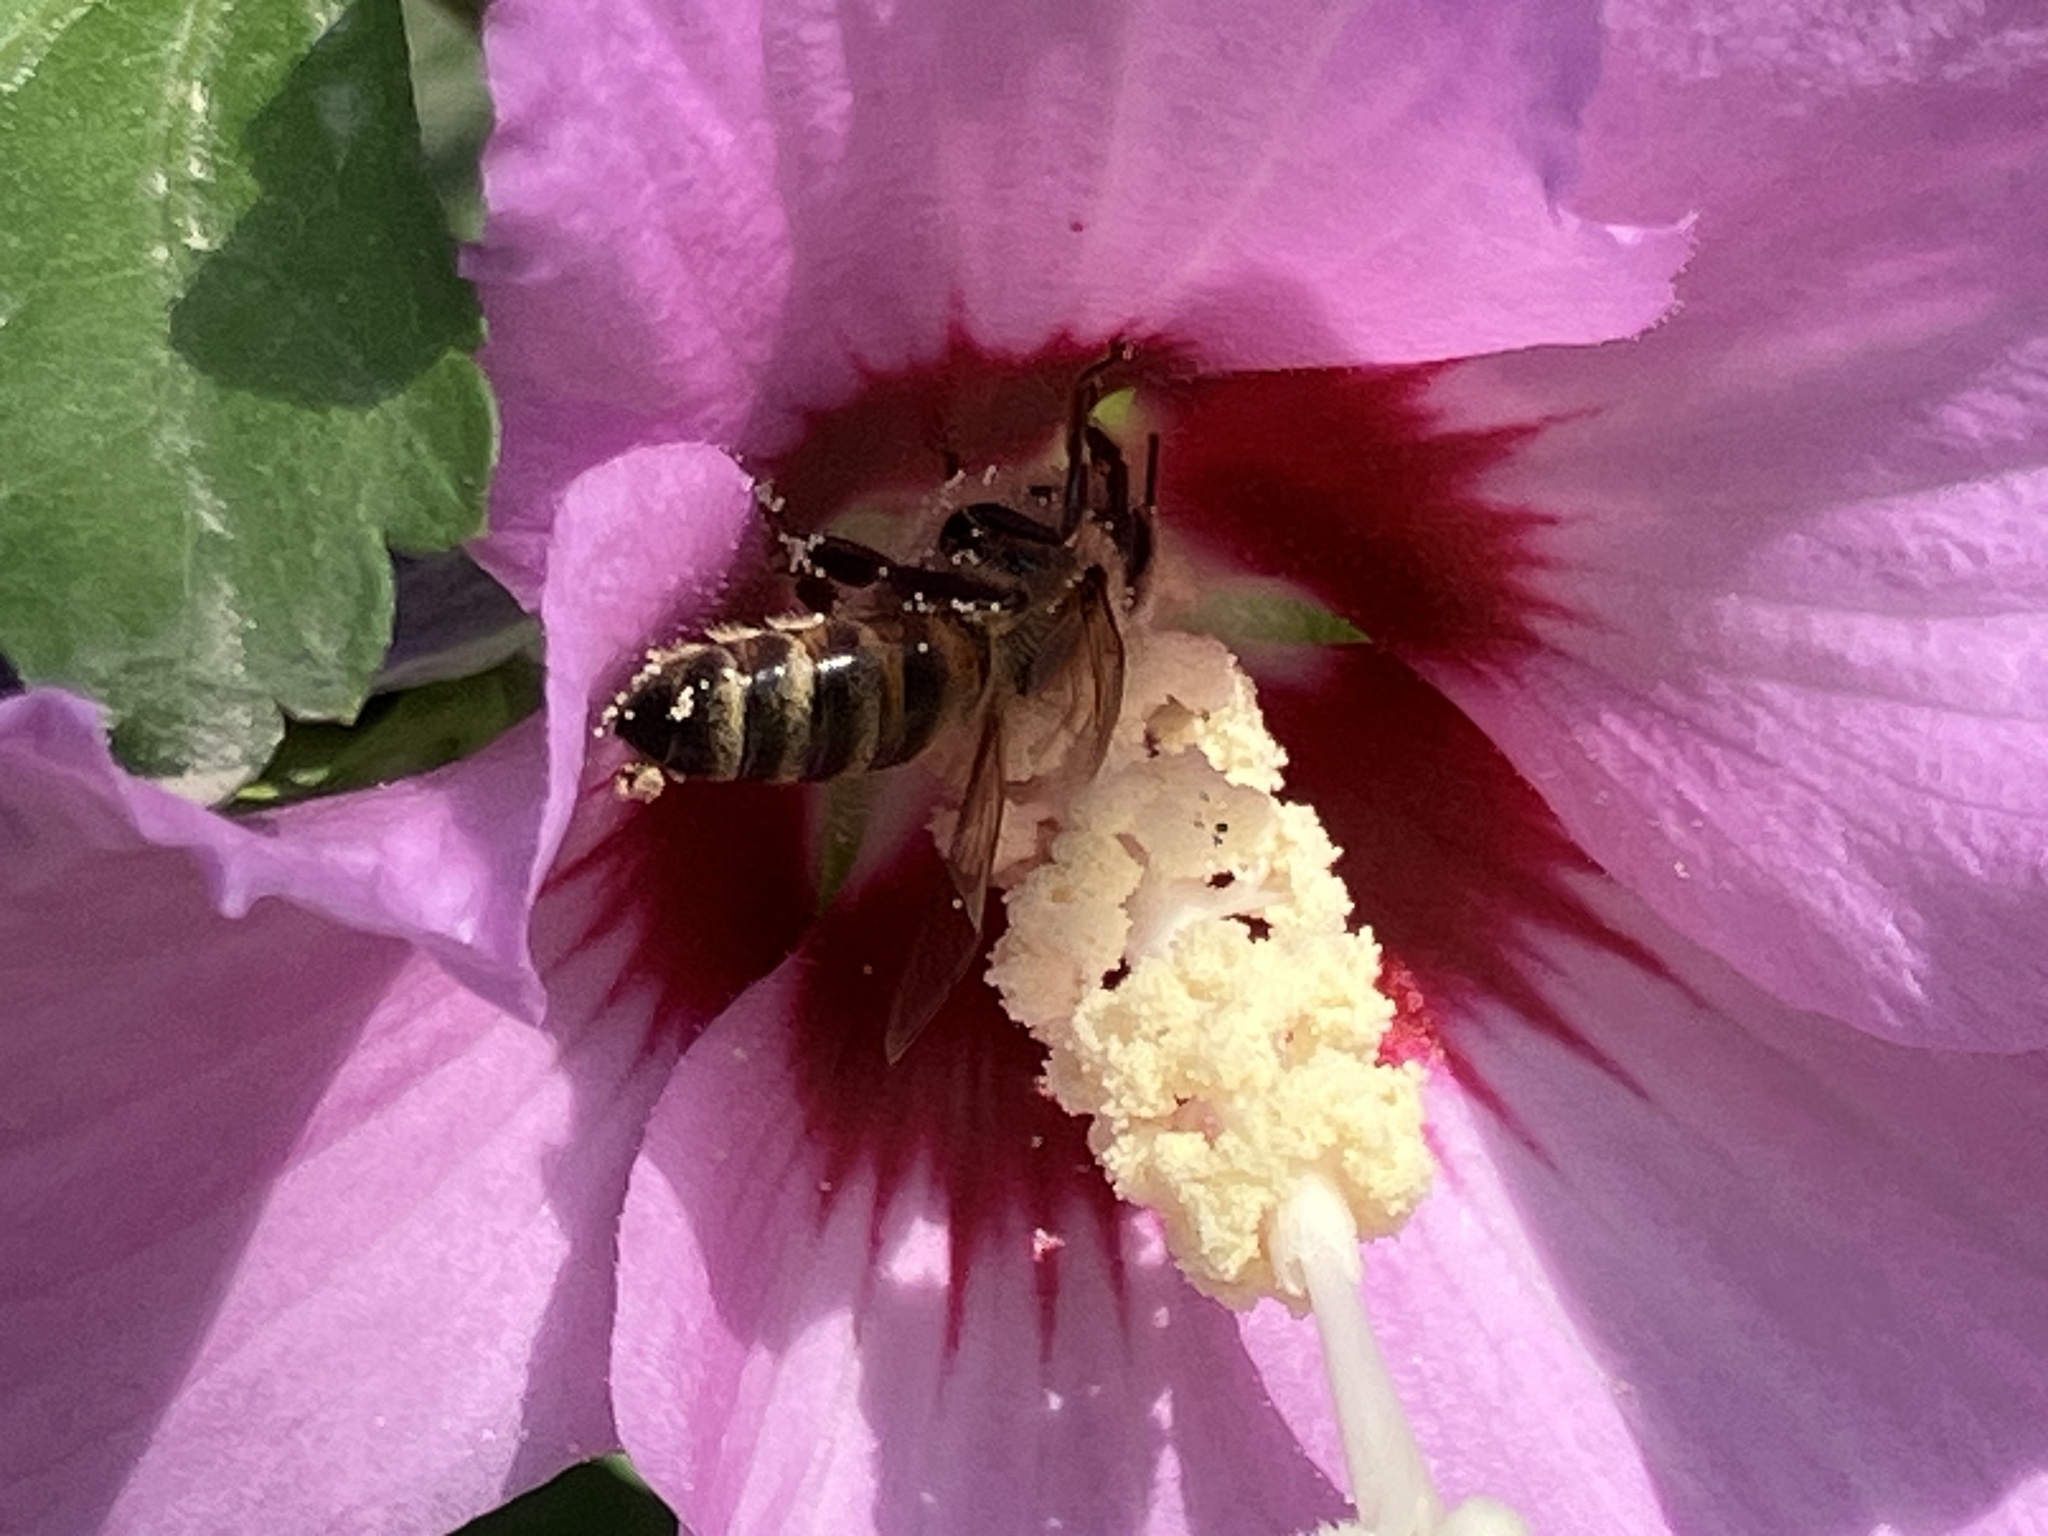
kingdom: Animalia
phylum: Arthropoda
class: Insecta
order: Hymenoptera
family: Apidae
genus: Apis
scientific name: Apis mellifera
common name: Honey bee
